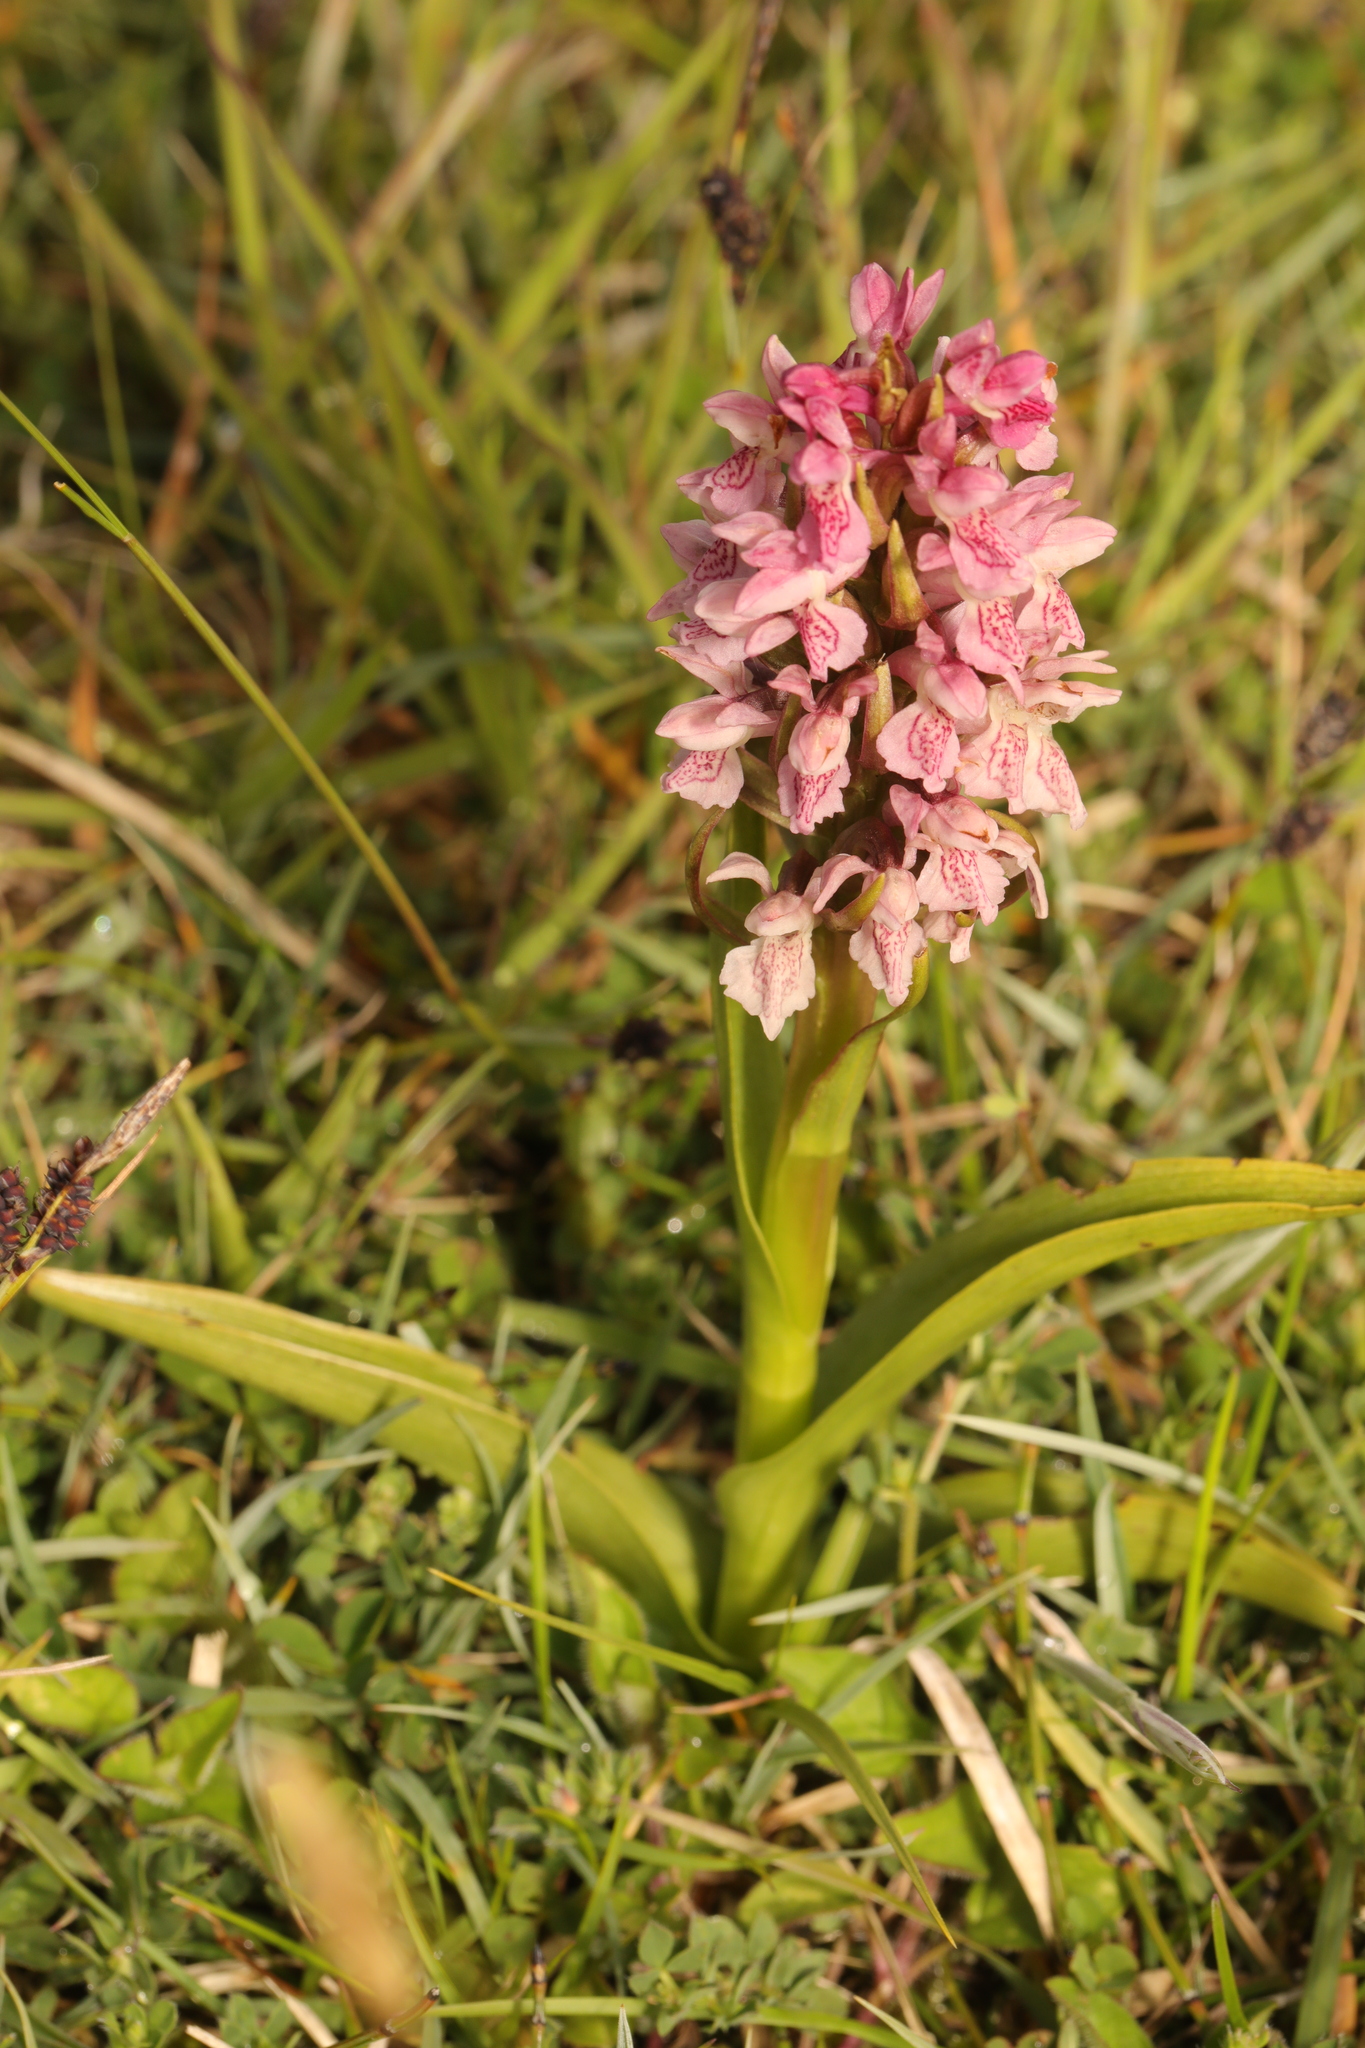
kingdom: Plantae
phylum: Tracheophyta
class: Liliopsida
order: Asparagales
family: Orchidaceae
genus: Dactylorhiza
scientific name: Dactylorhiza incarnata
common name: Early marsh-orchid
